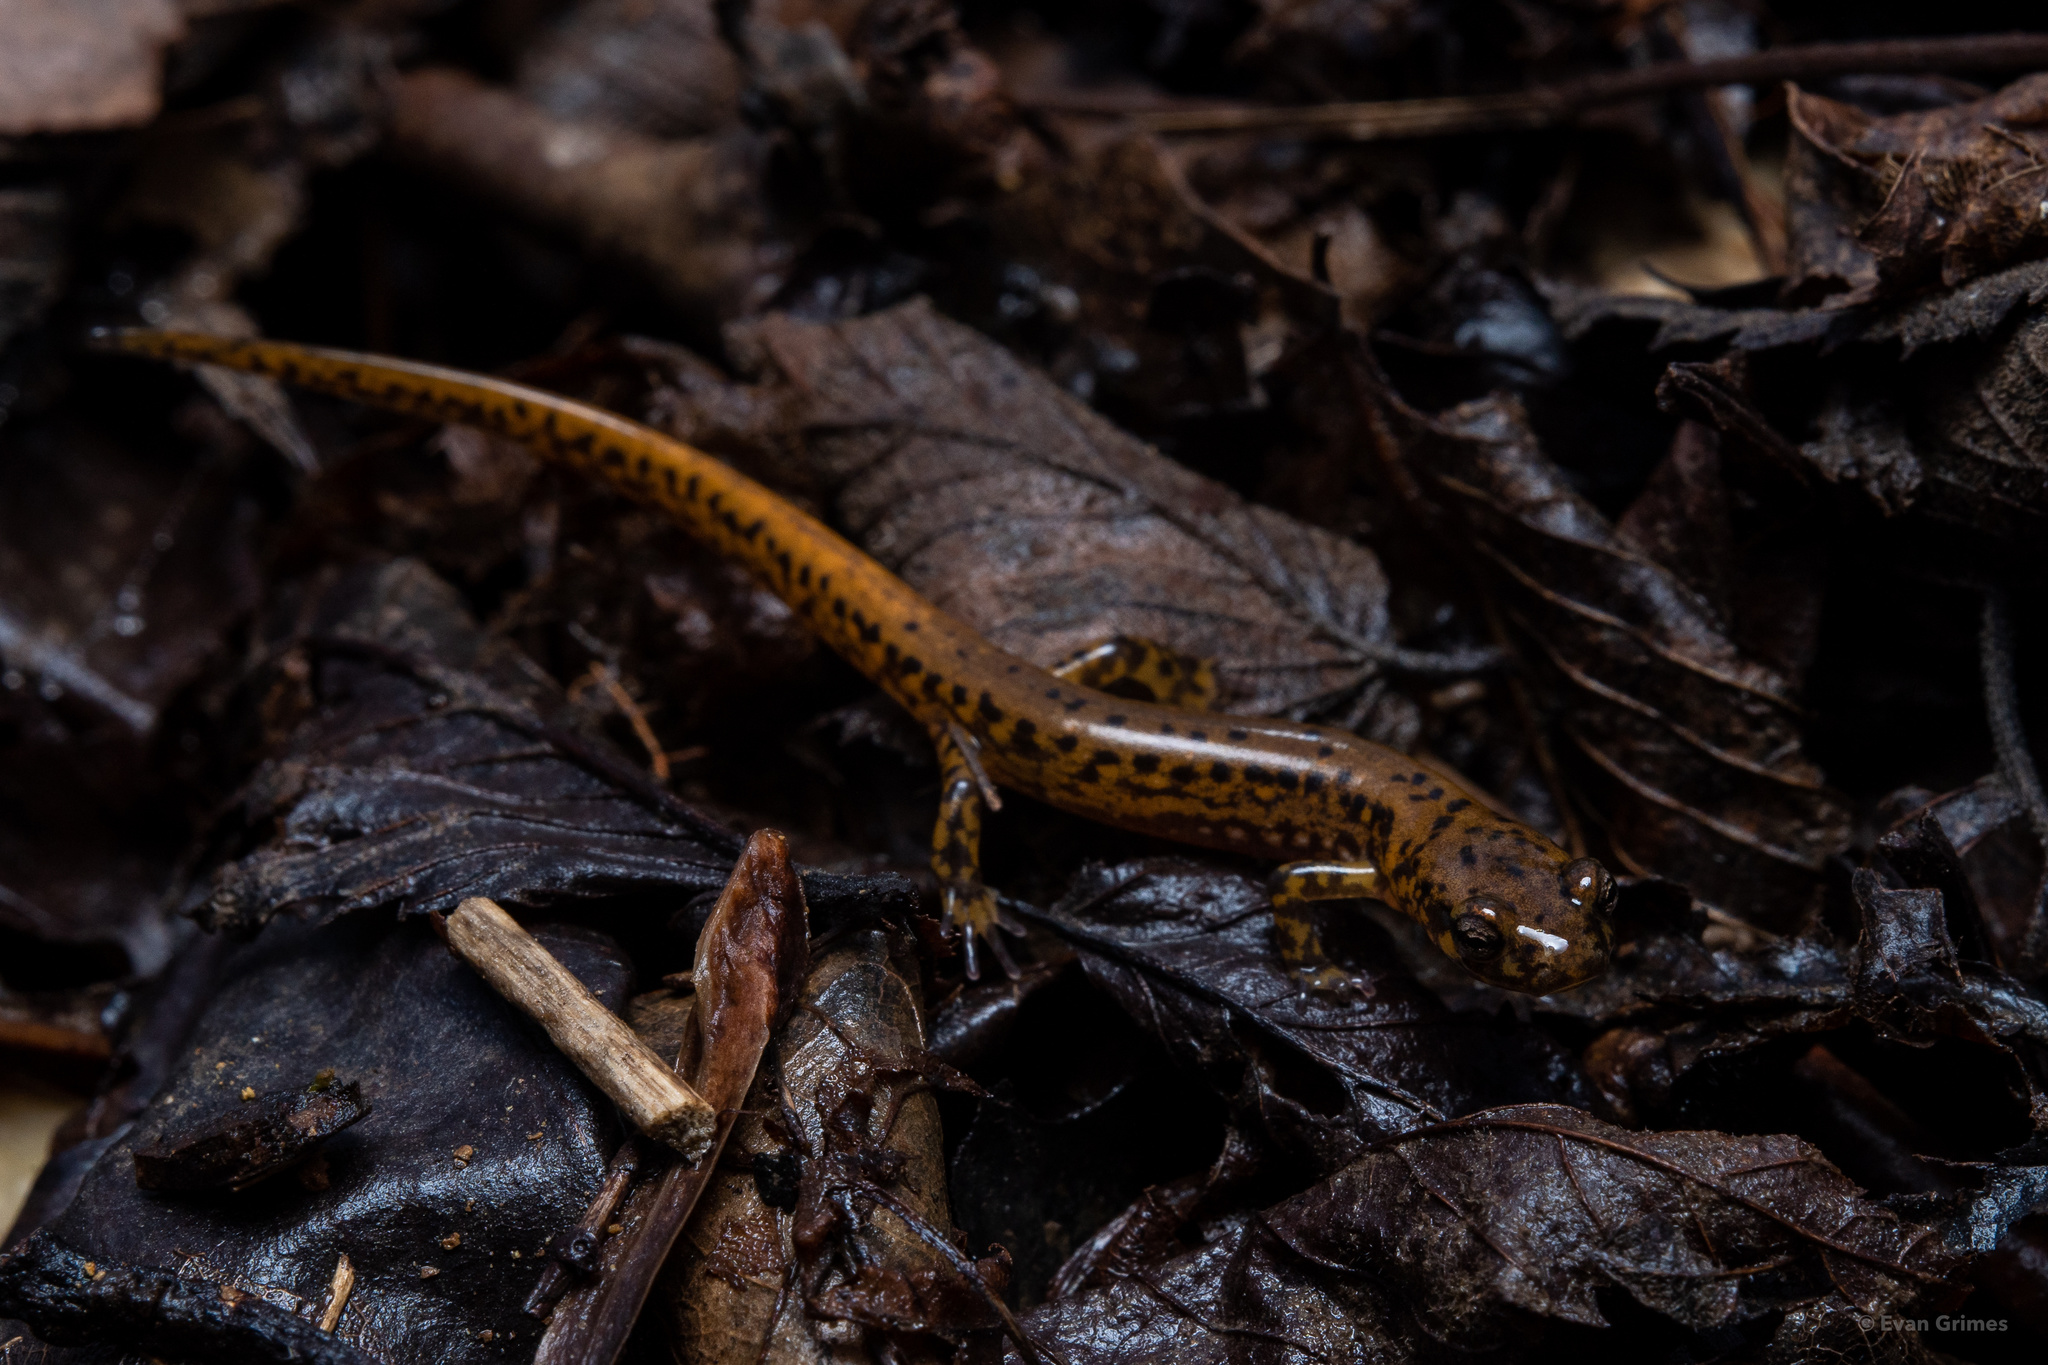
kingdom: Animalia
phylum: Chordata
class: Amphibia
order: Caudata
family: Plethodontidae
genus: Eurycea
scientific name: Eurycea longicauda
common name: Long-tailed salamander
